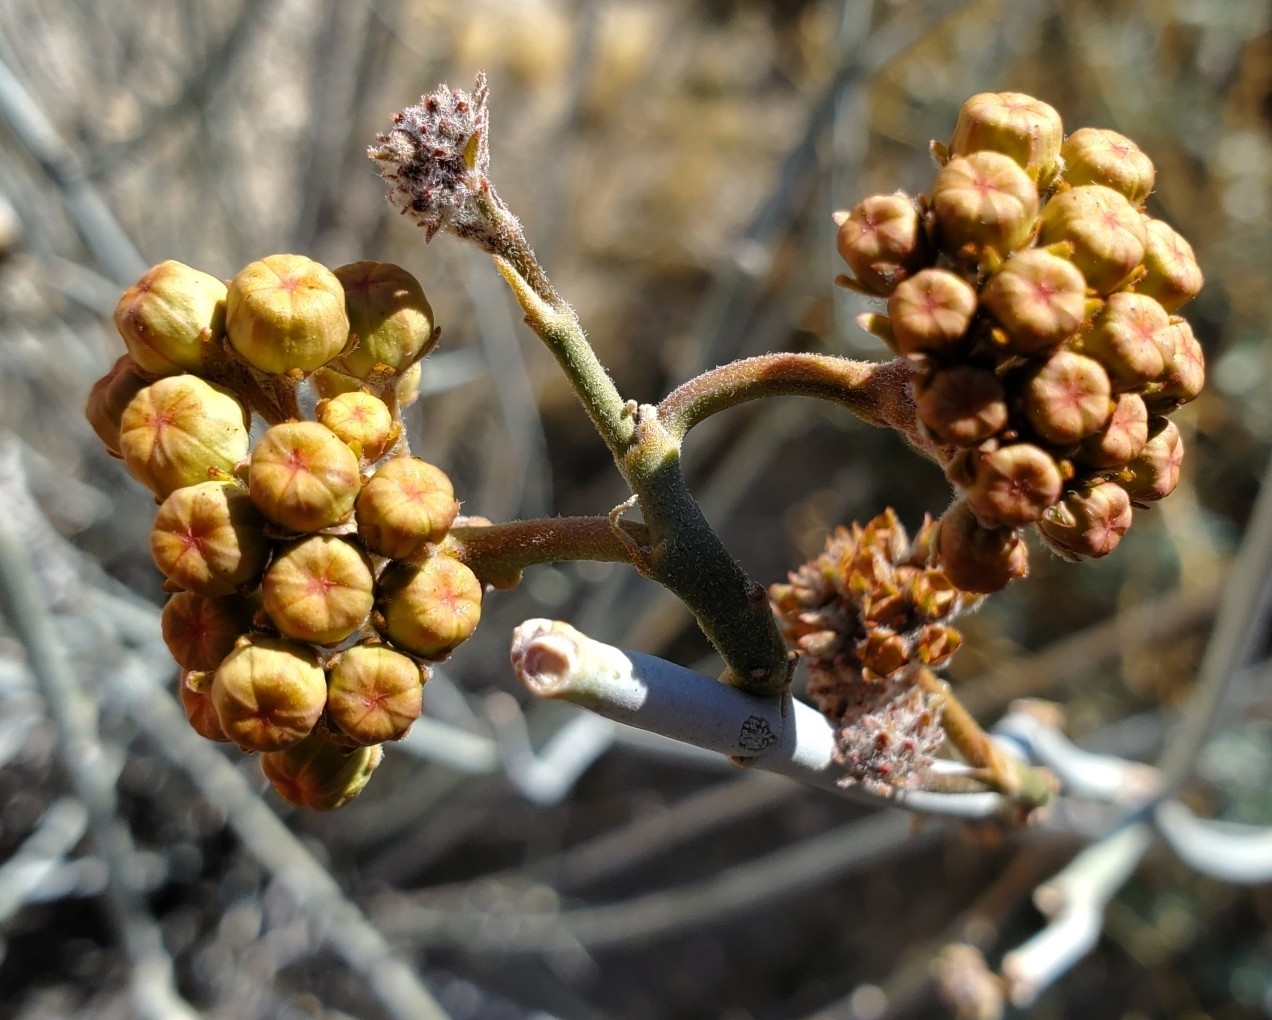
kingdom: Plantae
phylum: Tracheophyta
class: Magnoliopsida
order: Gentianales
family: Apocynaceae
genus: Asclepias
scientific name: Asclepias albicans
